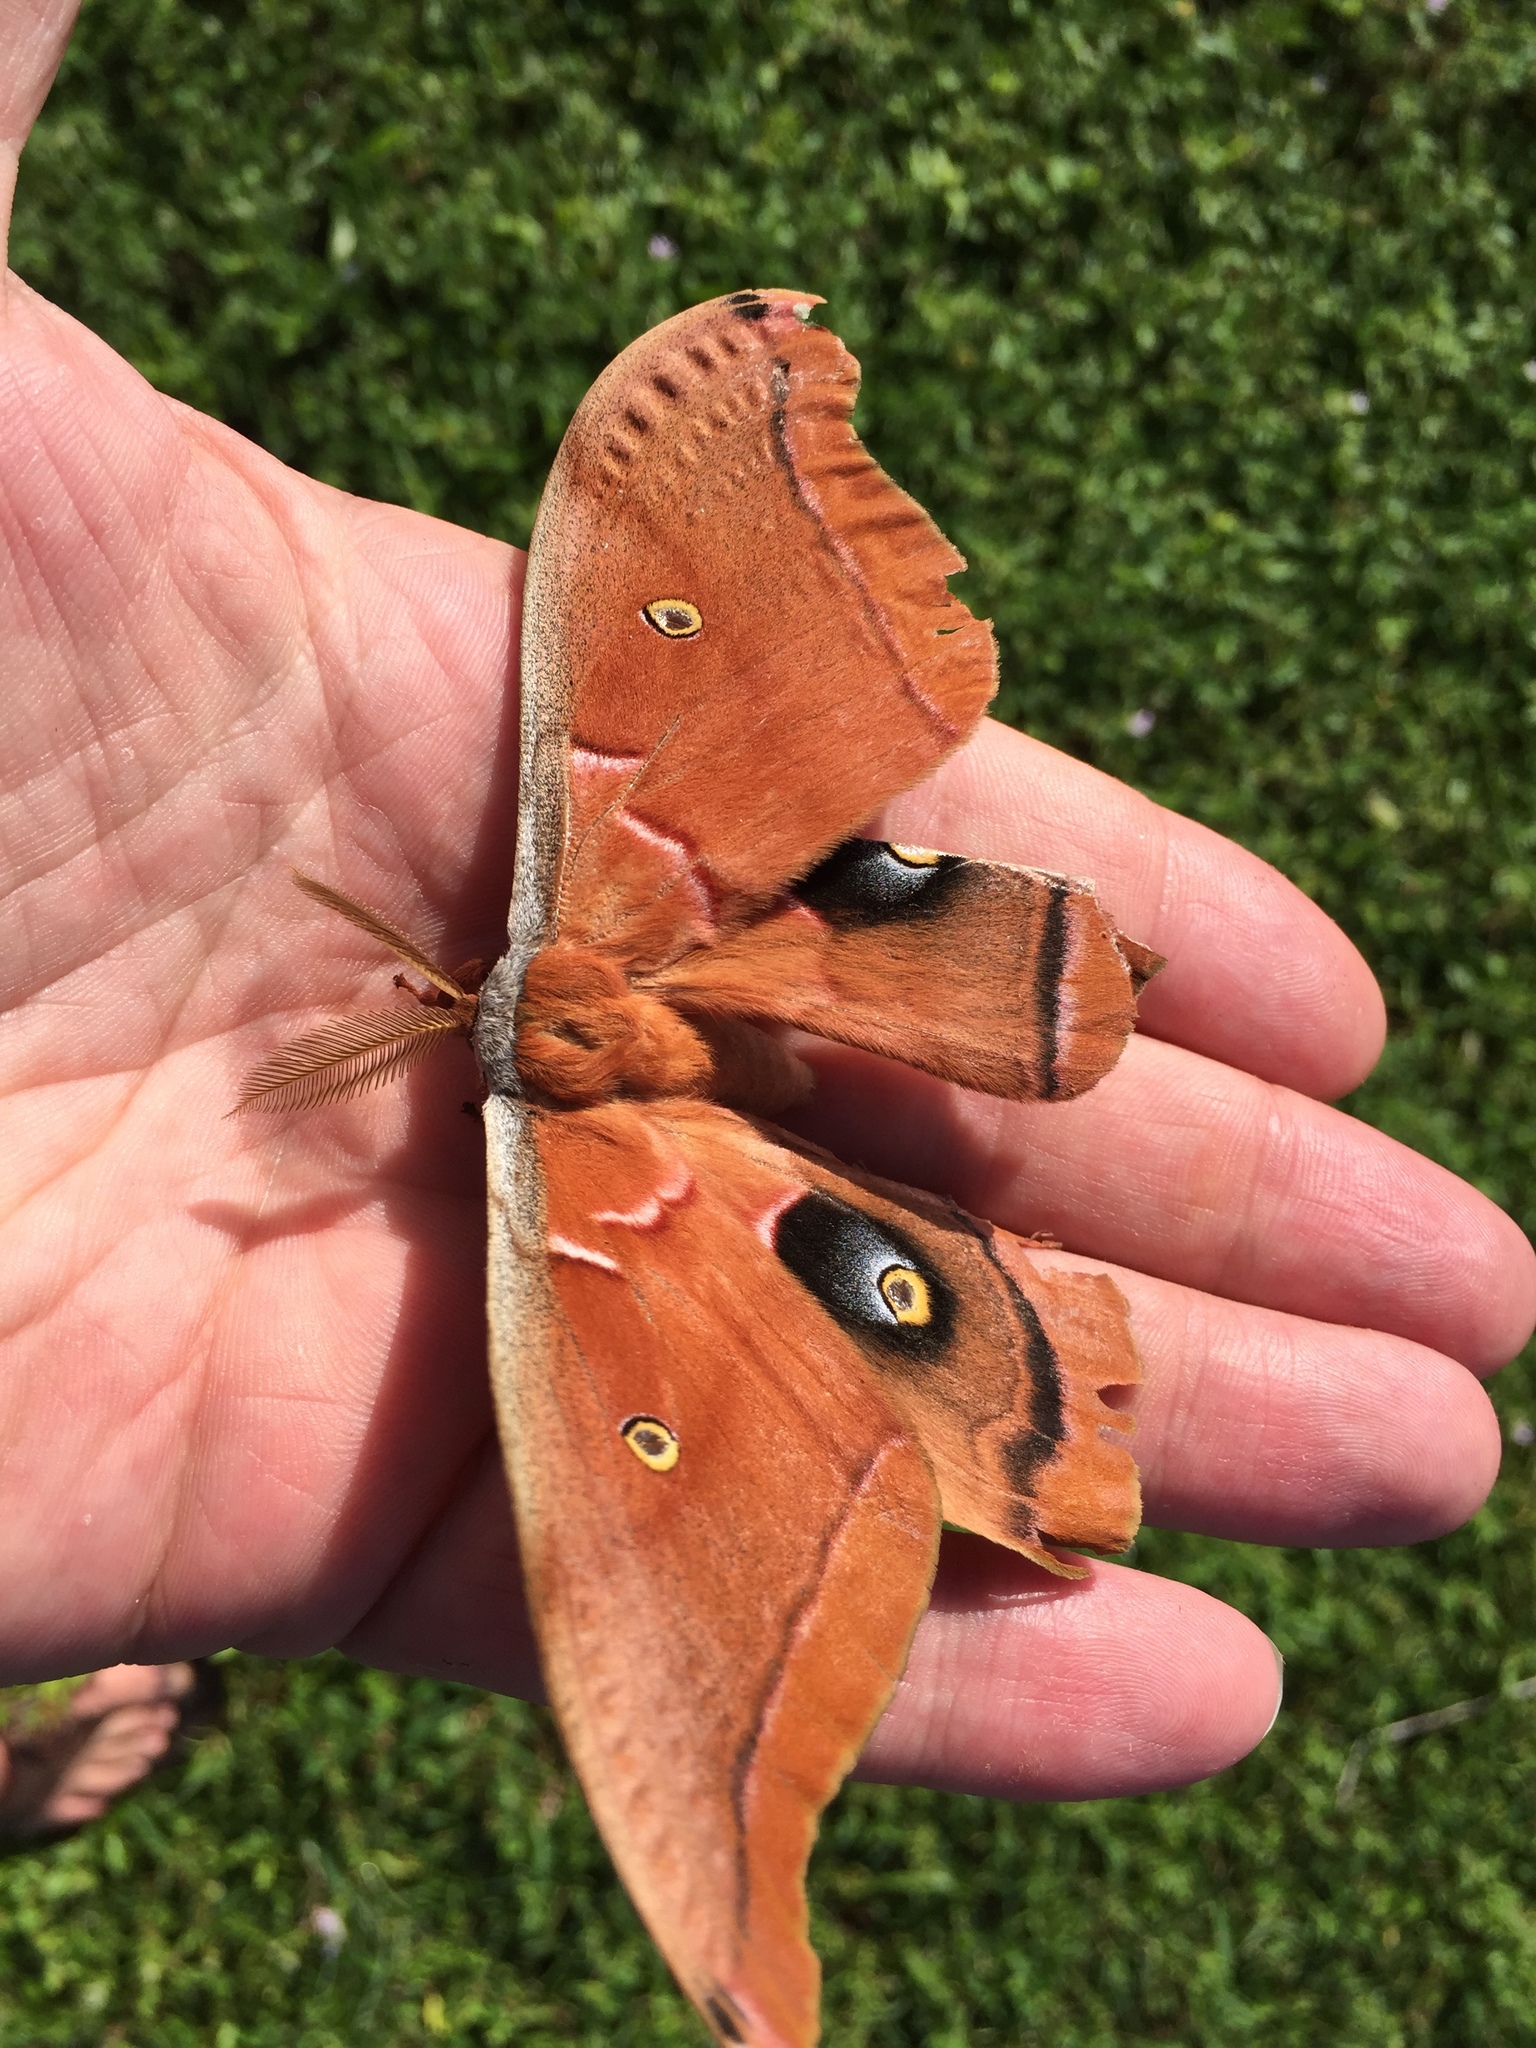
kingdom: Animalia
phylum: Arthropoda
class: Insecta
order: Lepidoptera
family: Saturniidae
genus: Antheraea
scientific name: Antheraea polyphemus
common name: Polyphemus moth
